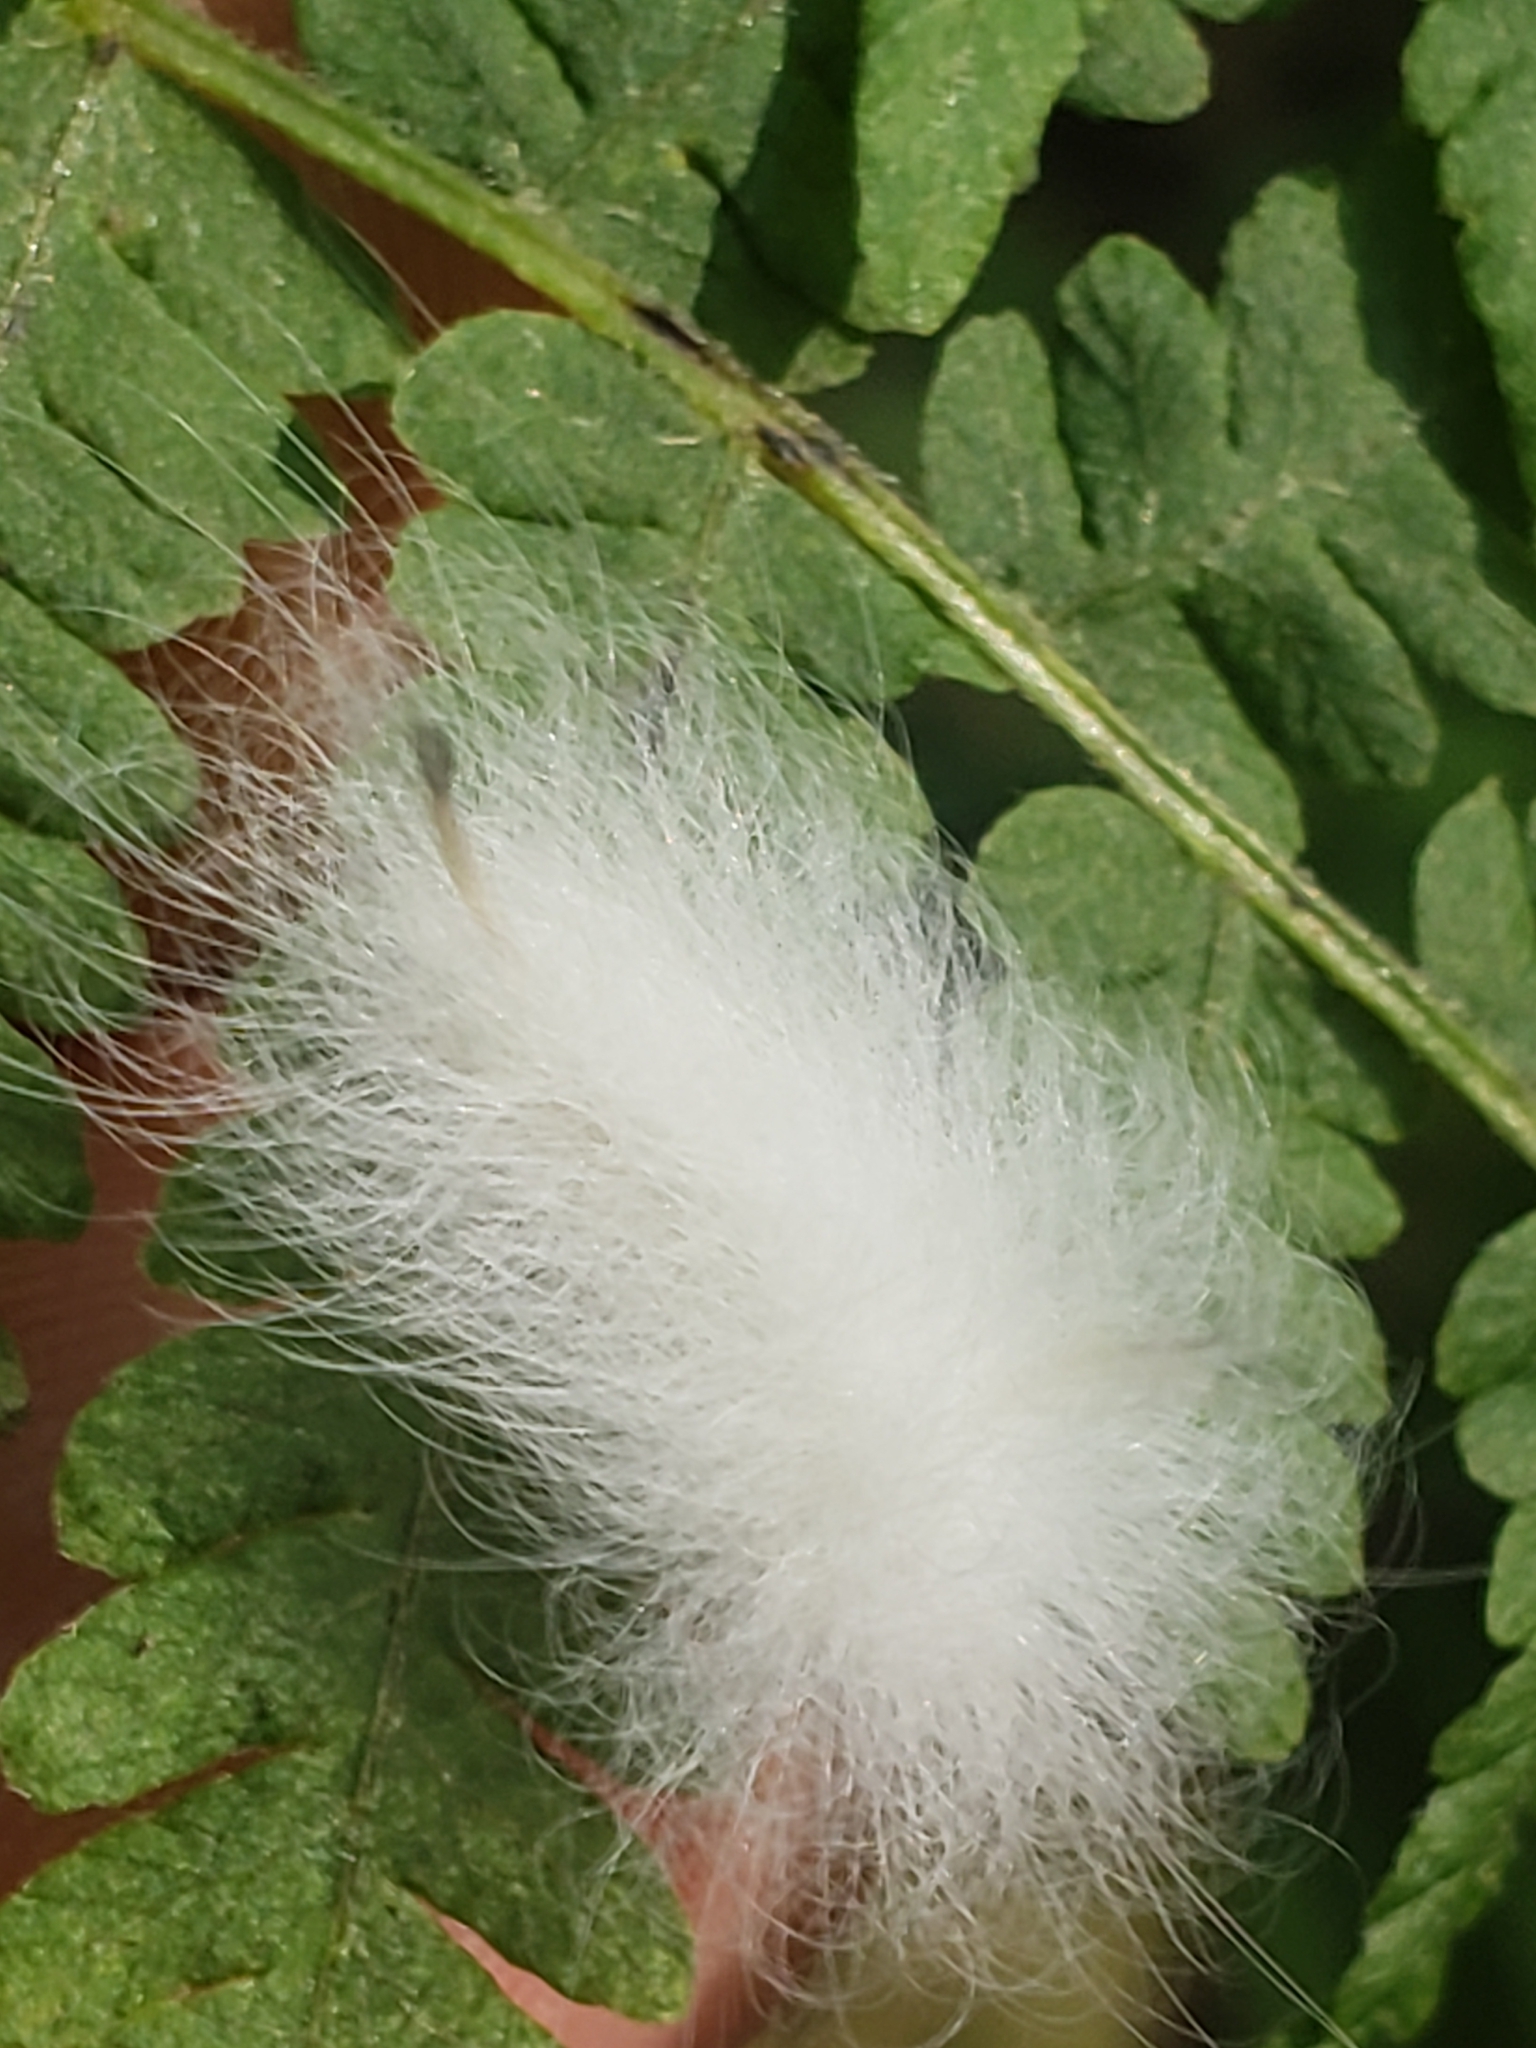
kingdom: Animalia
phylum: Arthropoda
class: Insecta
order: Lepidoptera
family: Apatelodidae
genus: Hygrochroa
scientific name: Hygrochroa Apatelodes torrefacta
